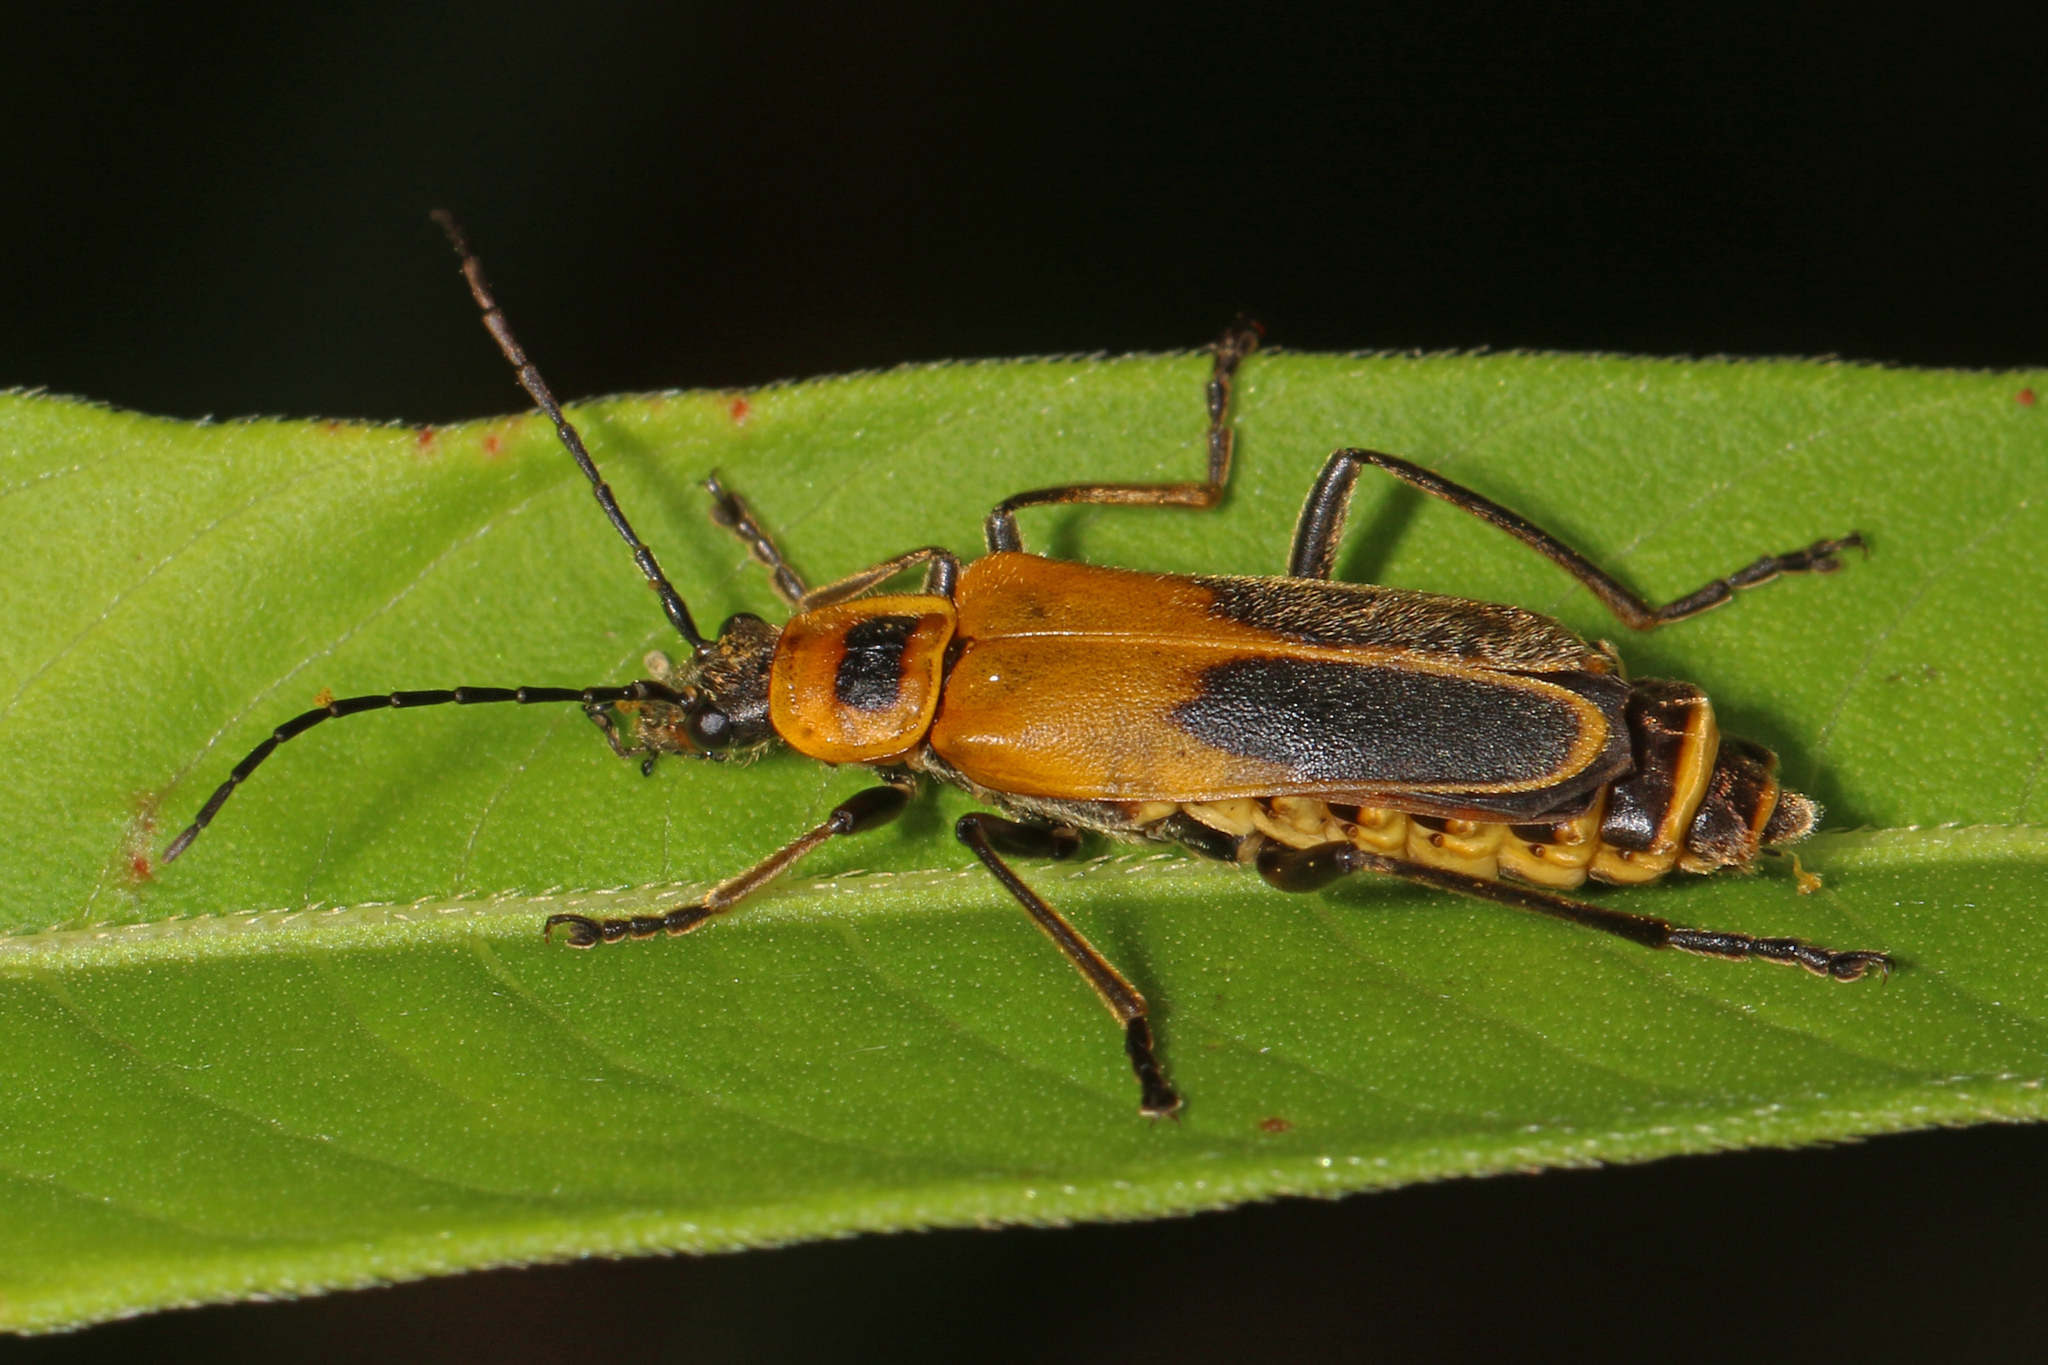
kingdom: Animalia
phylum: Arthropoda
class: Insecta
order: Coleoptera
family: Cantharidae
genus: Chauliognathus
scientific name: Chauliognathus pensylvanicus
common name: Goldenrod soldier beetle
